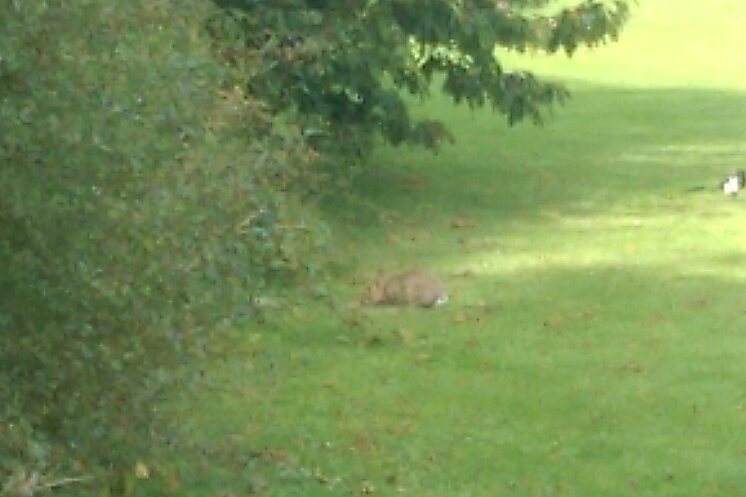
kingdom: Animalia
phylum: Chordata
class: Mammalia
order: Lagomorpha
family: Leporidae
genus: Oryctolagus
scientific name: Oryctolagus cuniculus
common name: European rabbit
